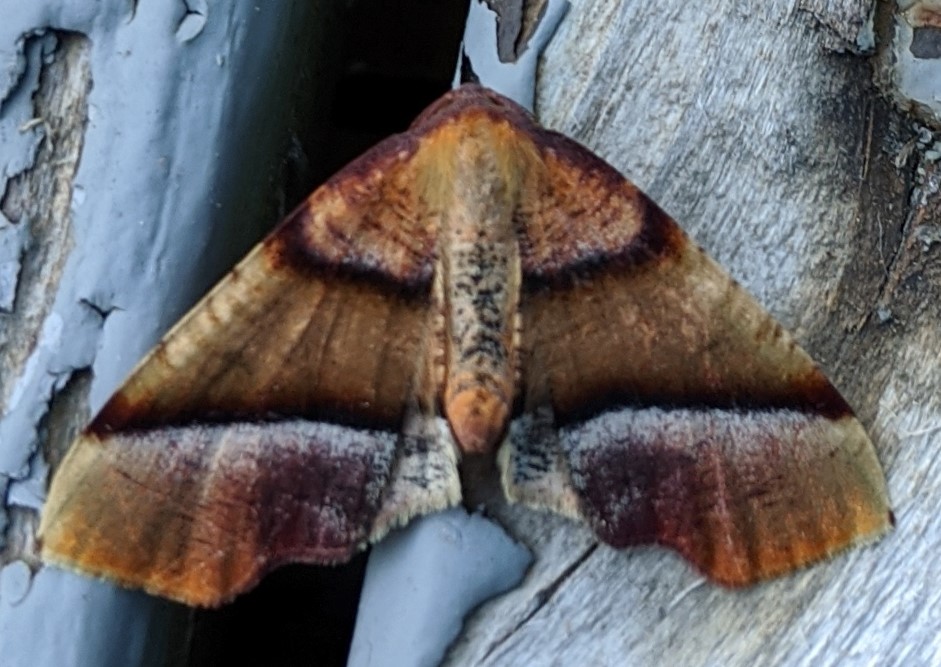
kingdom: Animalia
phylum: Arthropoda
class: Insecta
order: Lepidoptera
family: Geometridae
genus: Plagodis
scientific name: Plagodis phlogosaria
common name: Straight-lined plagodis
